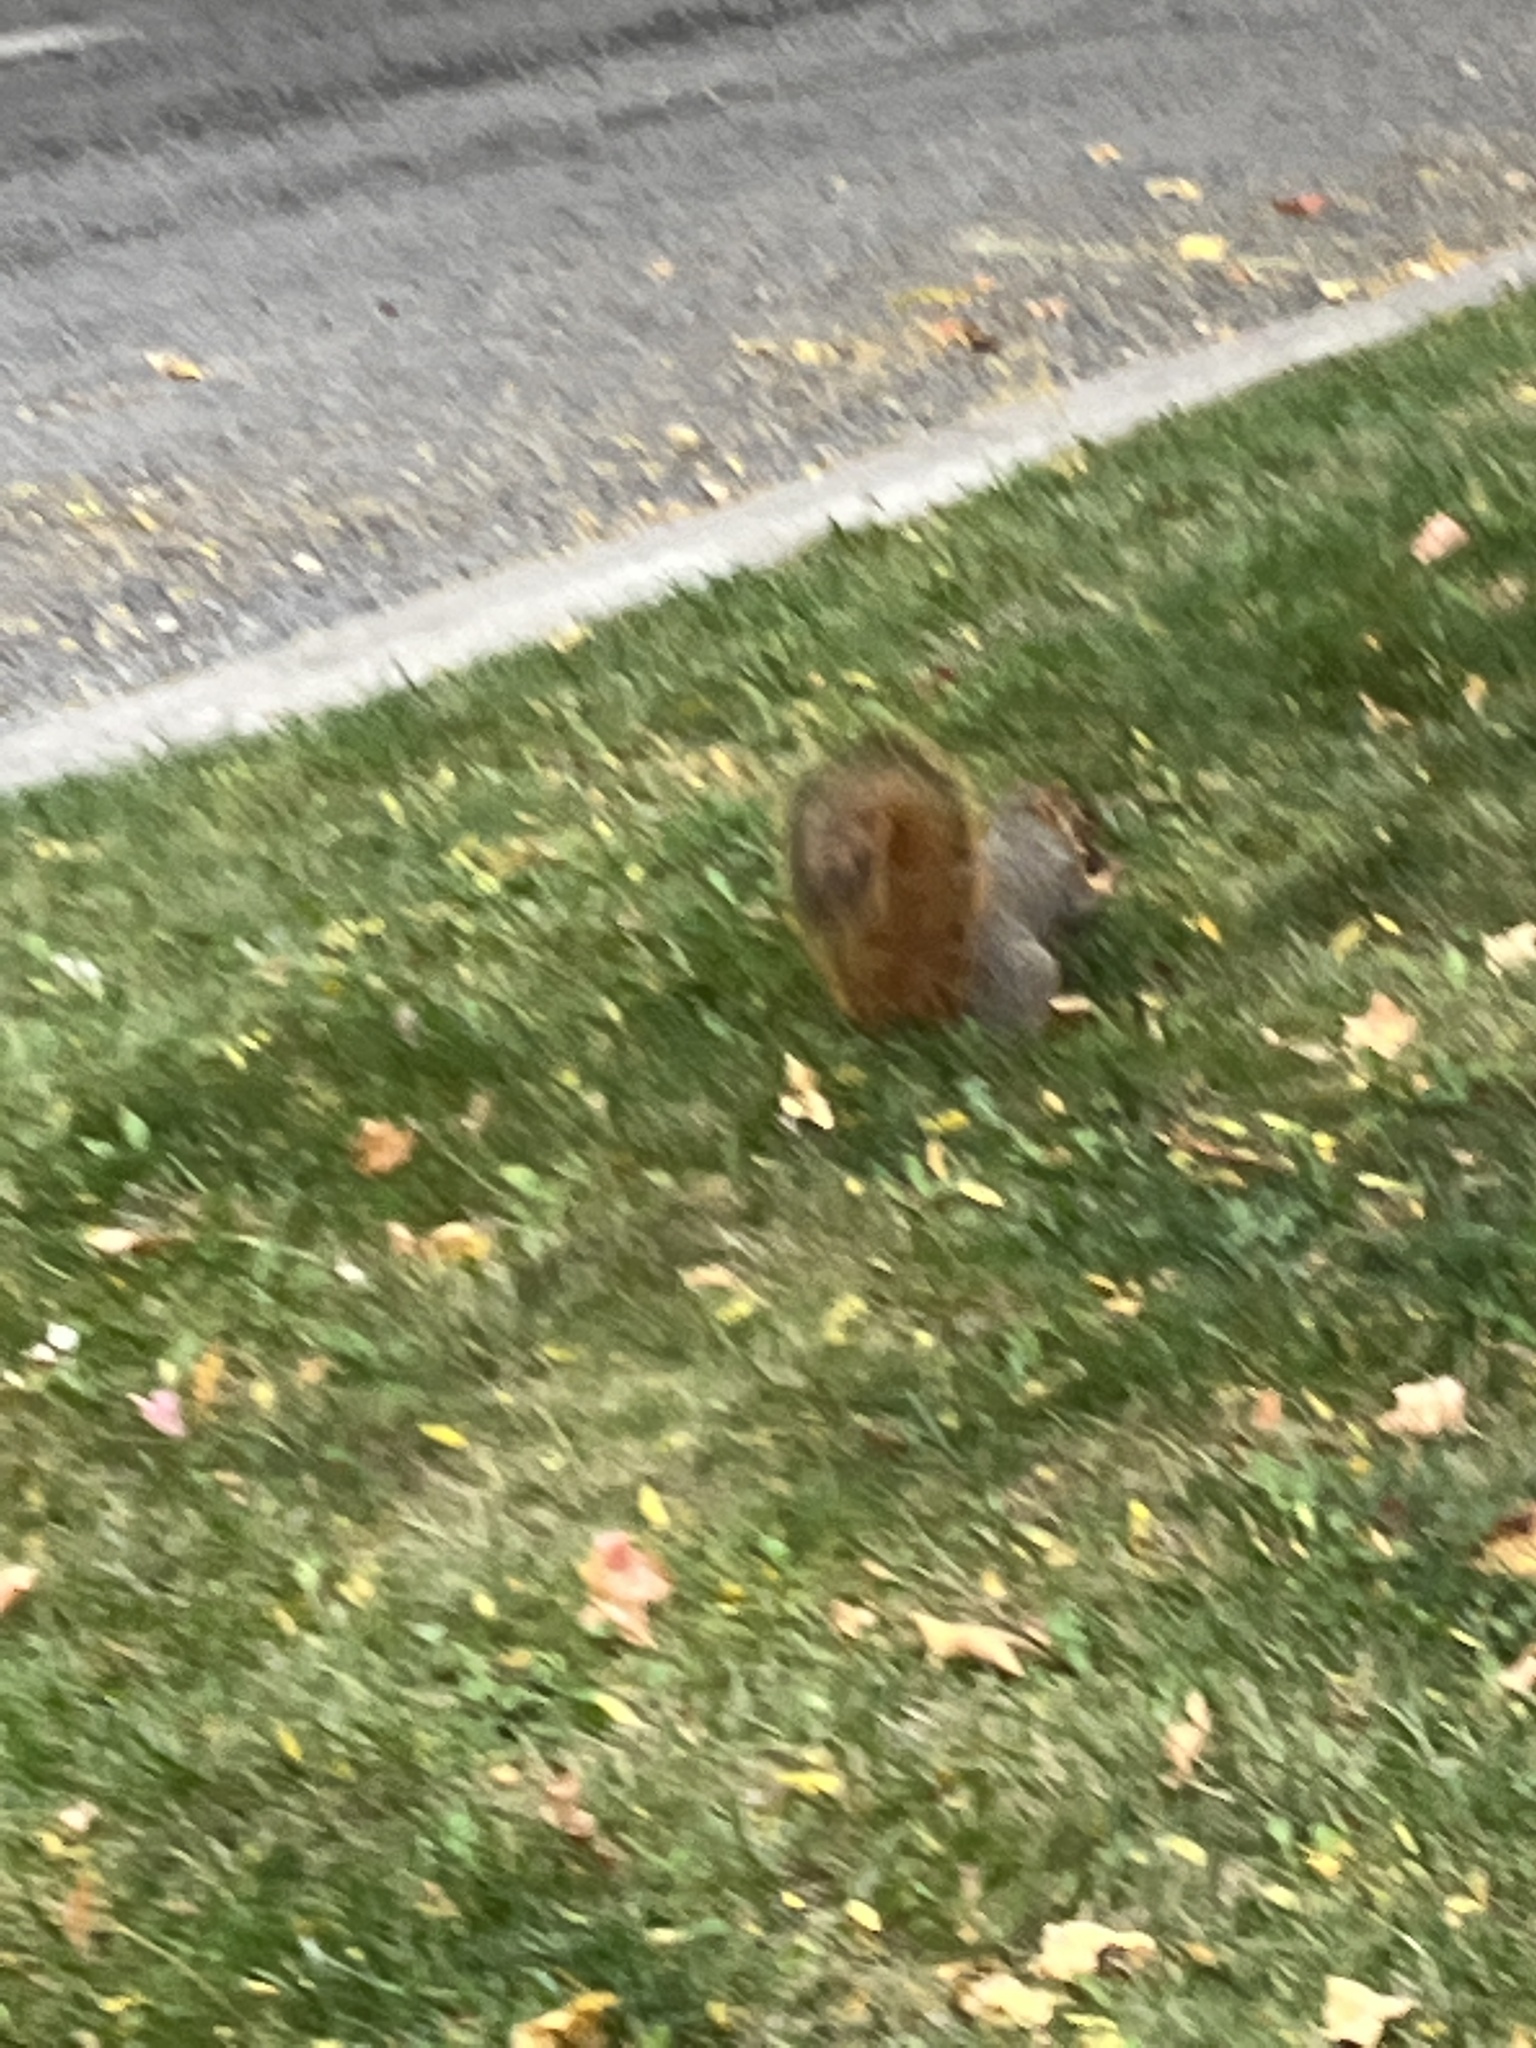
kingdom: Animalia
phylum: Chordata
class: Mammalia
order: Rodentia
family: Sciuridae
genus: Sciurus
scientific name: Sciurus niger
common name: Fox squirrel
